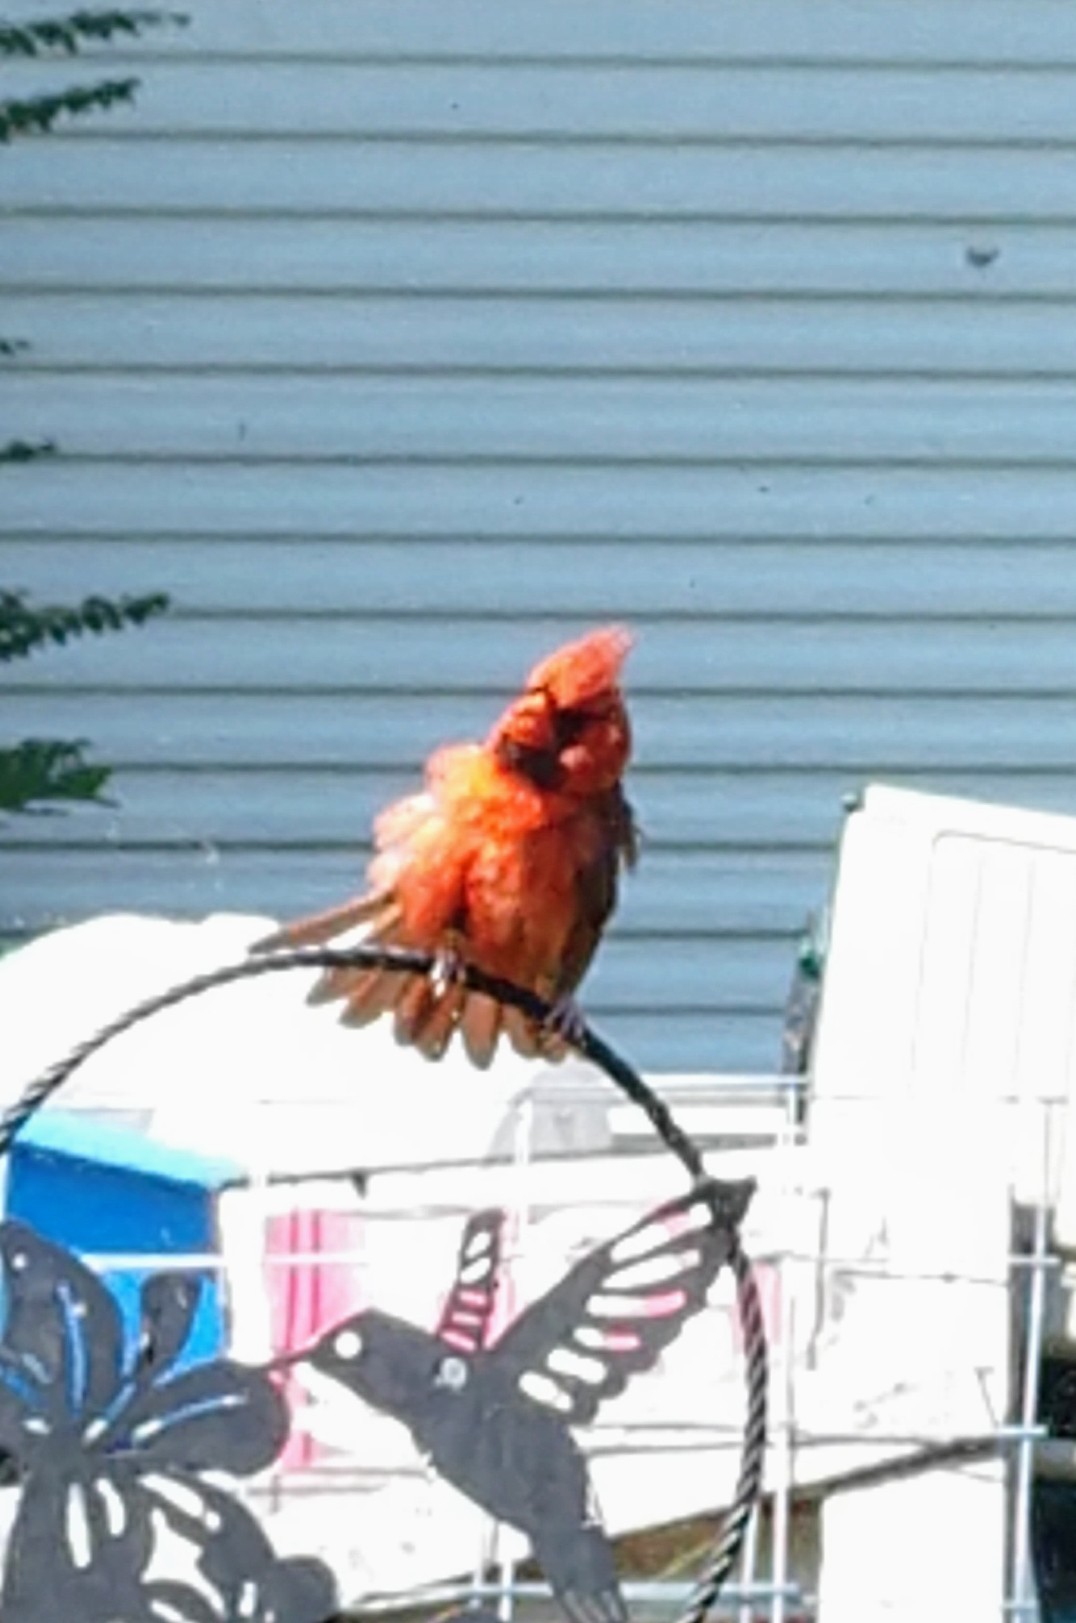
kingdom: Animalia
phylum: Chordata
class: Aves
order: Passeriformes
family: Cardinalidae
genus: Cardinalis
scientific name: Cardinalis cardinalis
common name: Northern cardinal
